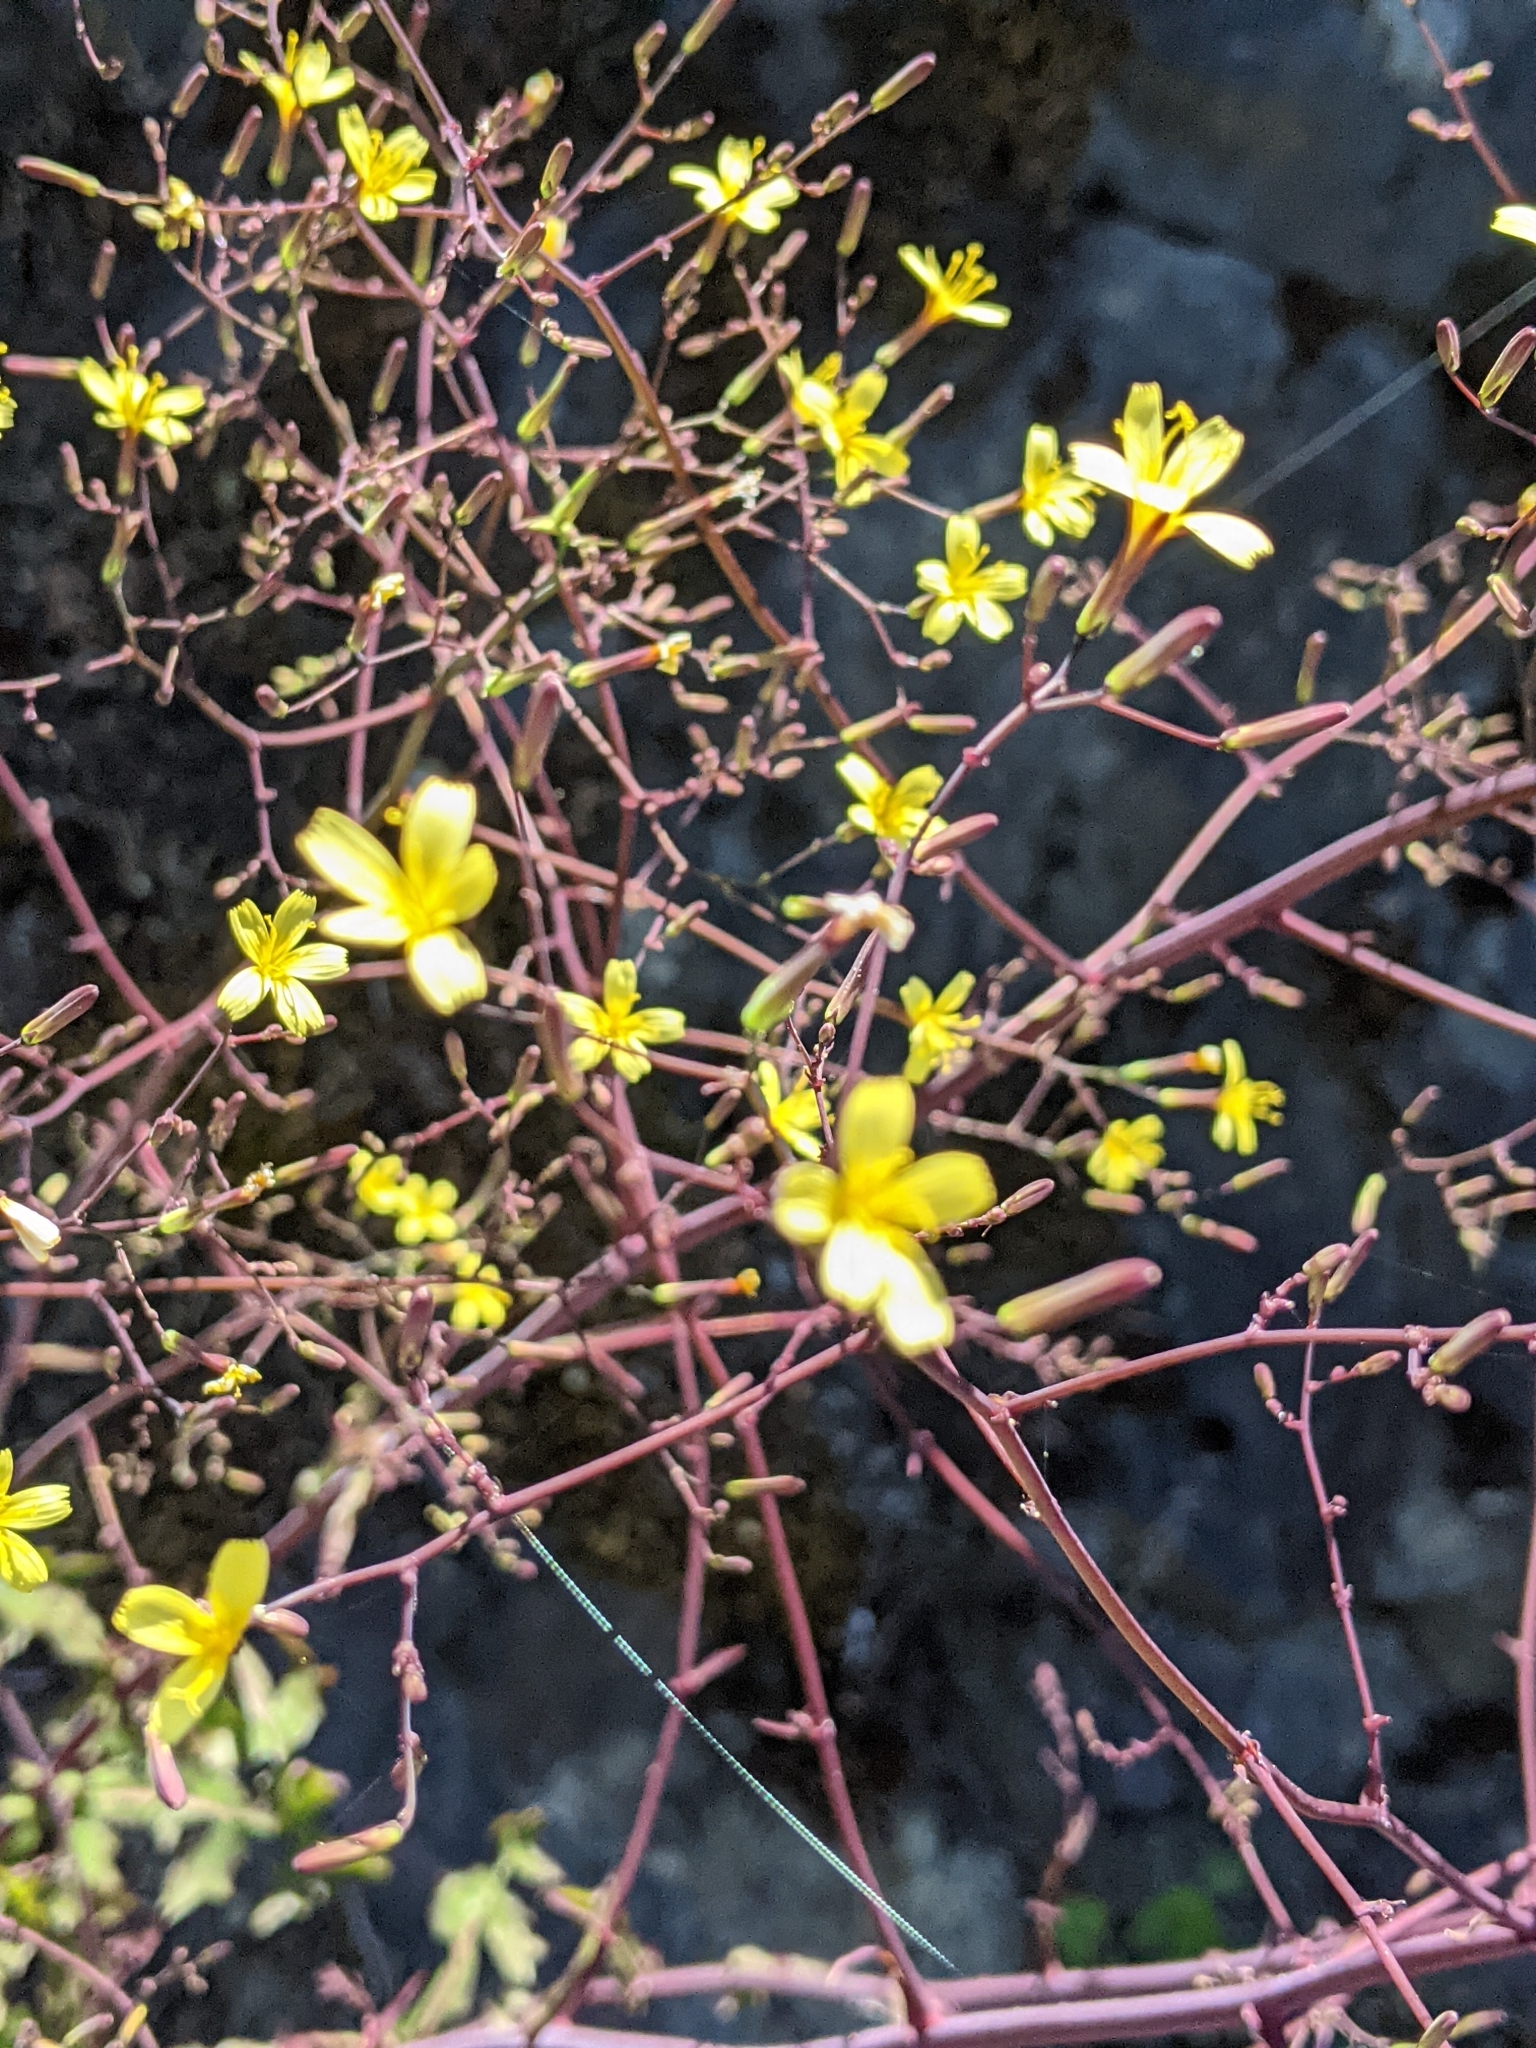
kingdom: Plantae
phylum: Tracheophyta
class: Magnoliopsida
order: Asterales
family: Asteraceae
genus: Mycelis
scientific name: Mycelis muralis
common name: Wall lettuce
